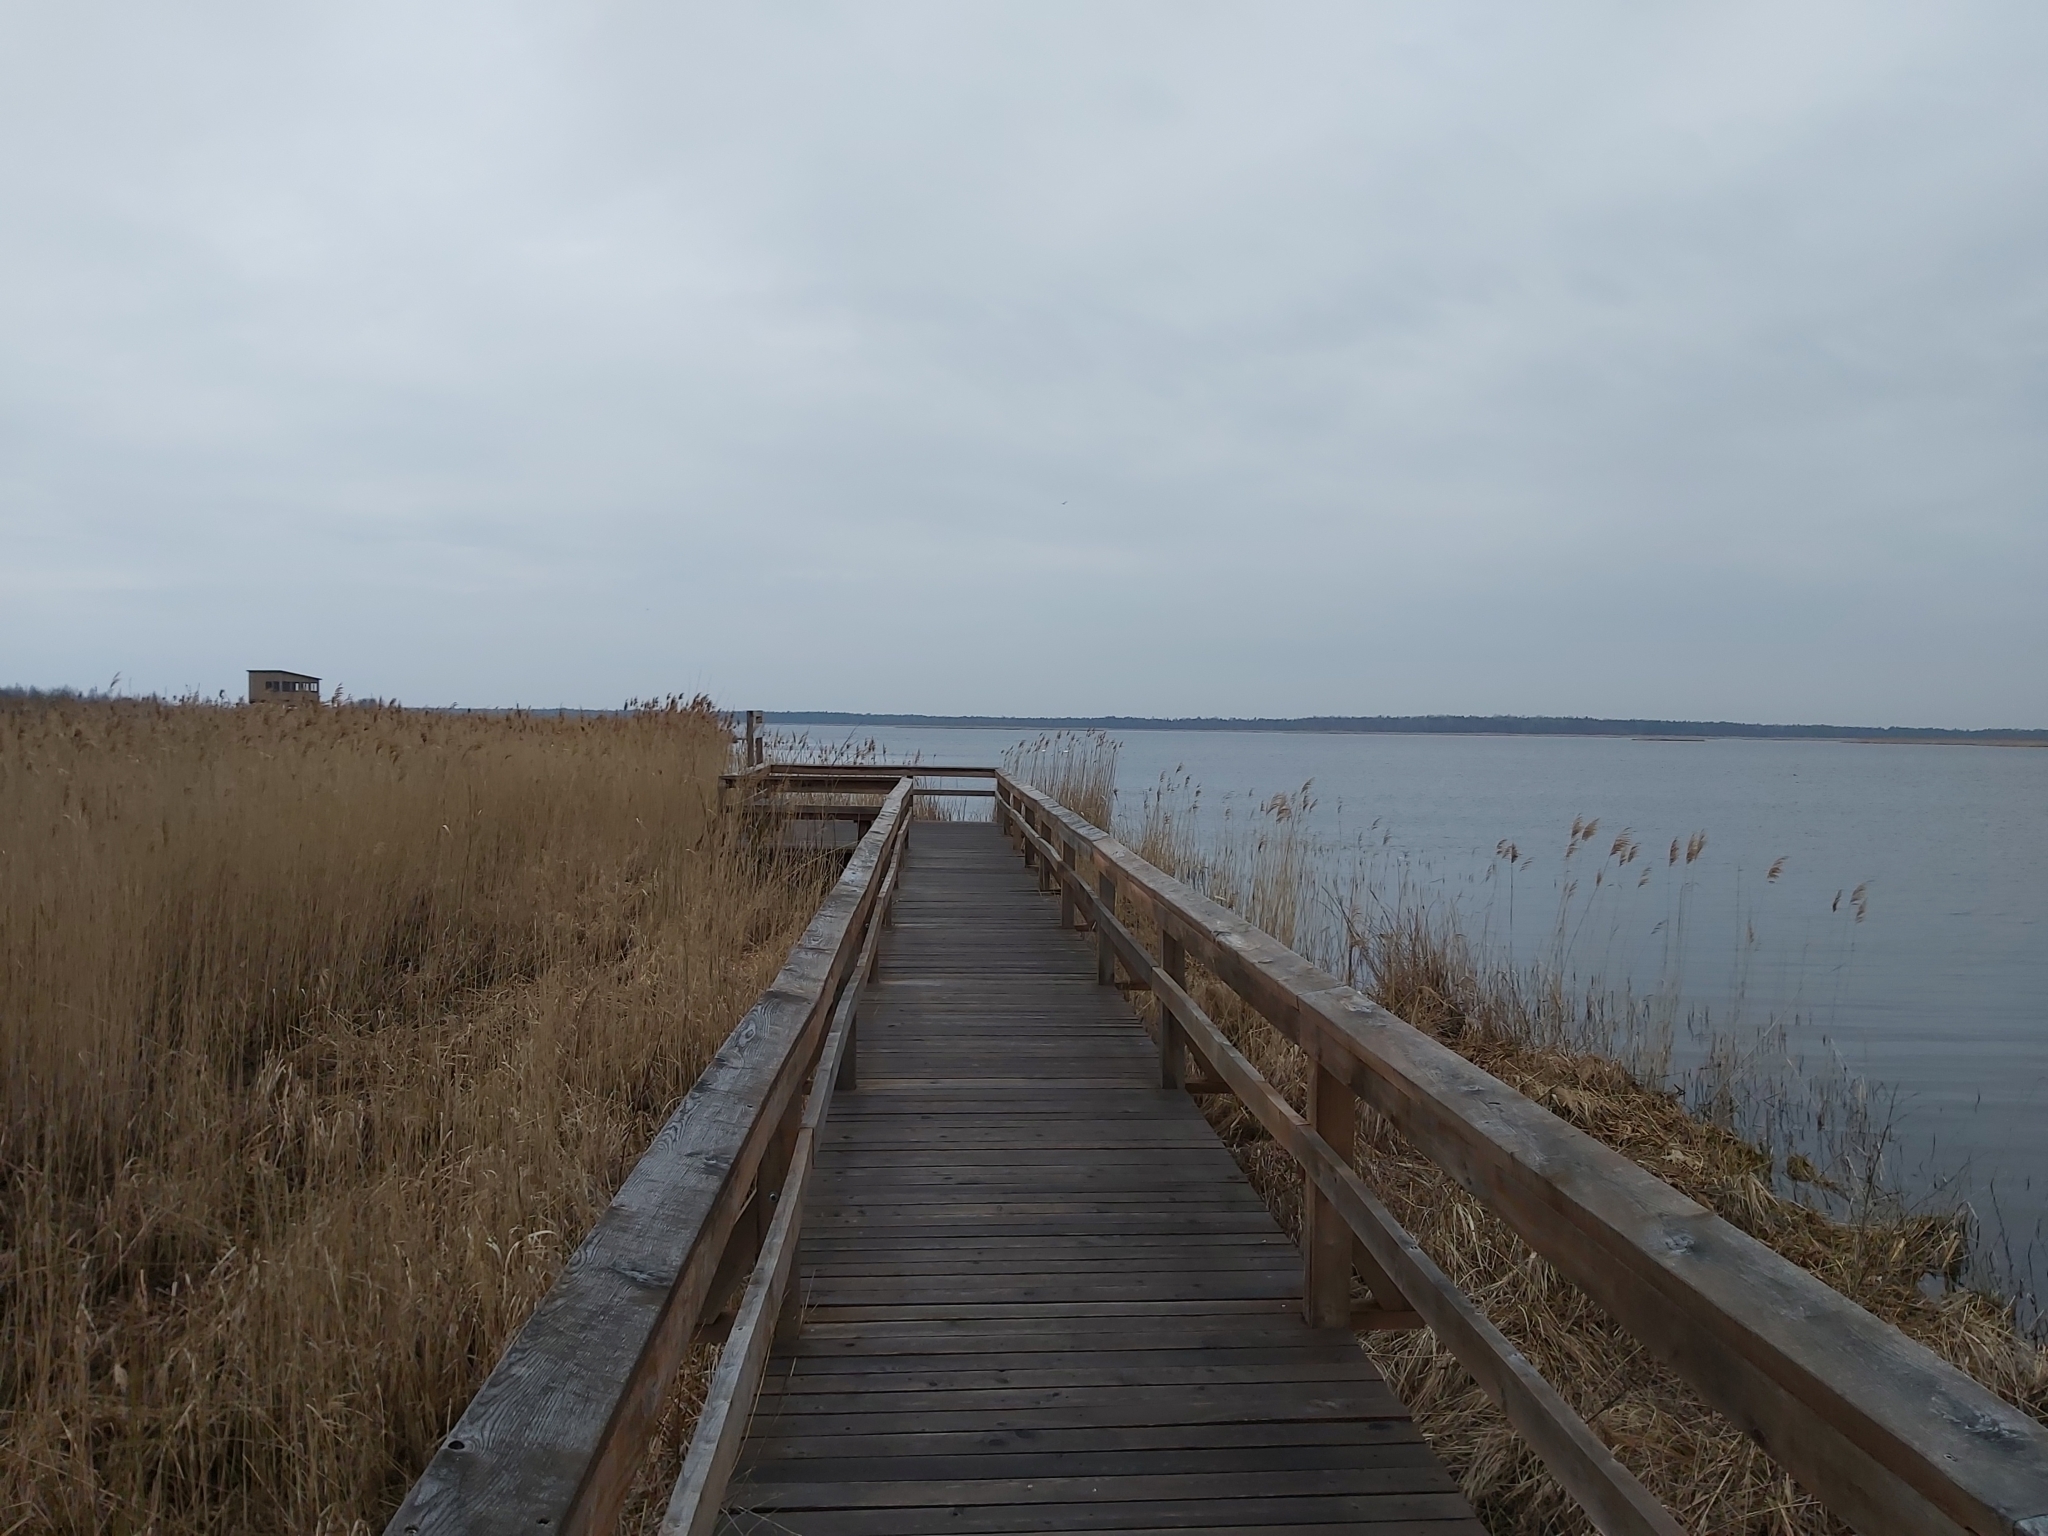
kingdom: Animalia
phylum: Chordata
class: Aves
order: Pelecaniformes
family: Ardeidae
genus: Botaurus
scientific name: Botaurus stellaris
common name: Eurasian bittern
